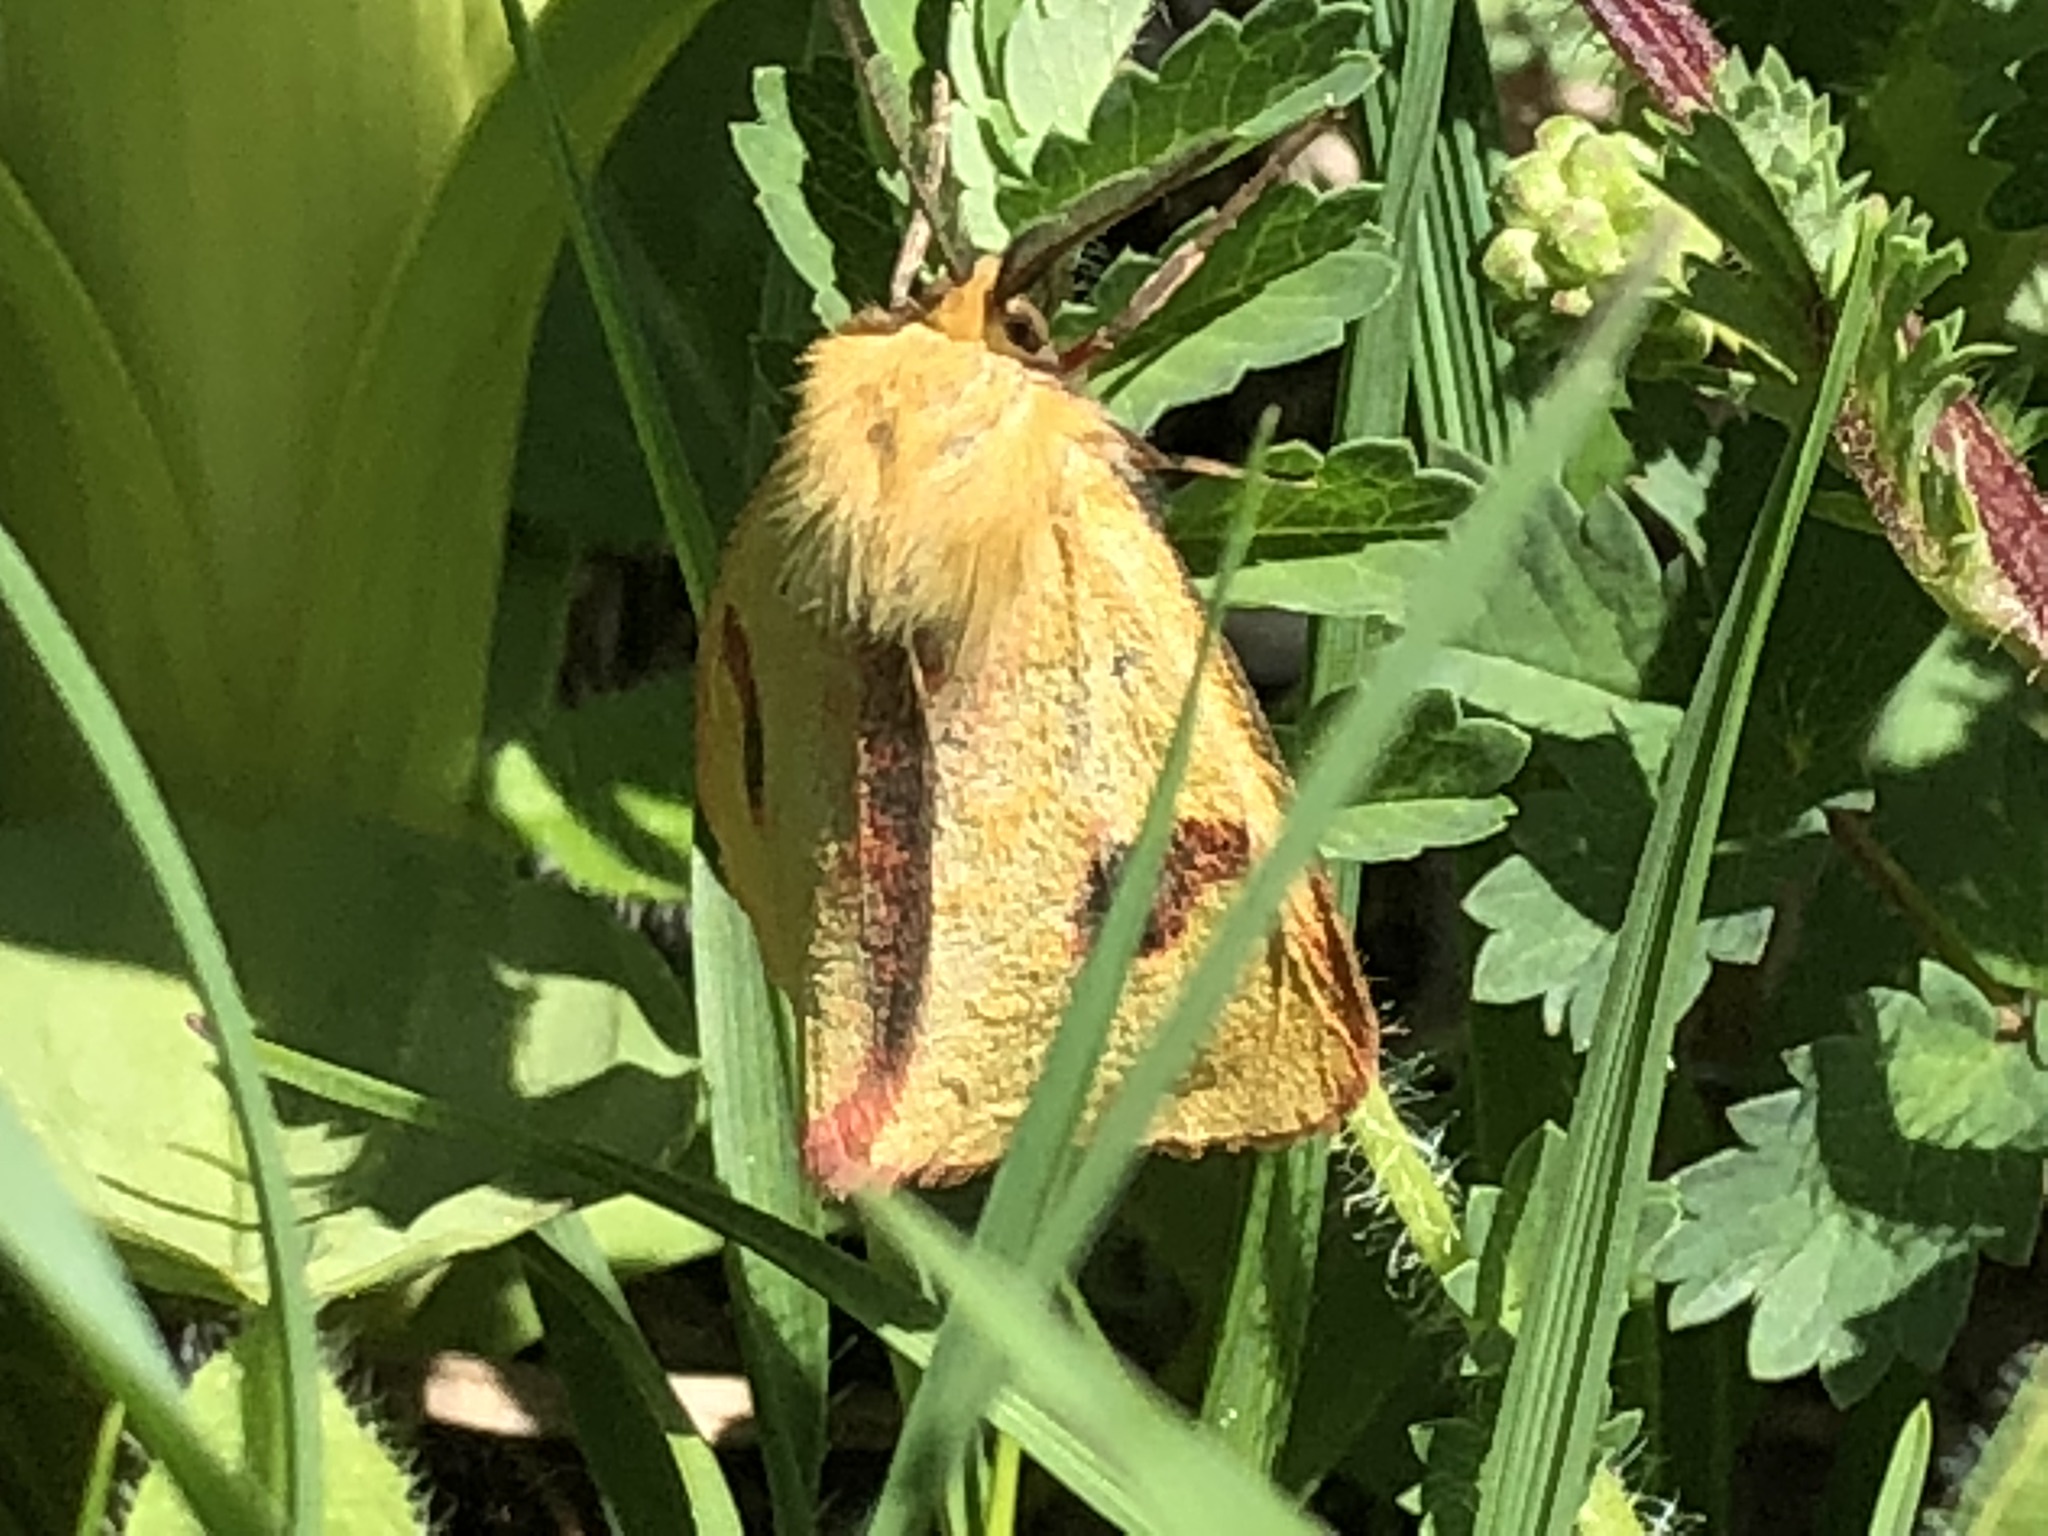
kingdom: Animalia
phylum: Arthropoda
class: Insecta
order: Lepidoptera
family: Erebidae
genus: Diacrisia
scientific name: Diacrisia sannio
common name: Clouded buff
